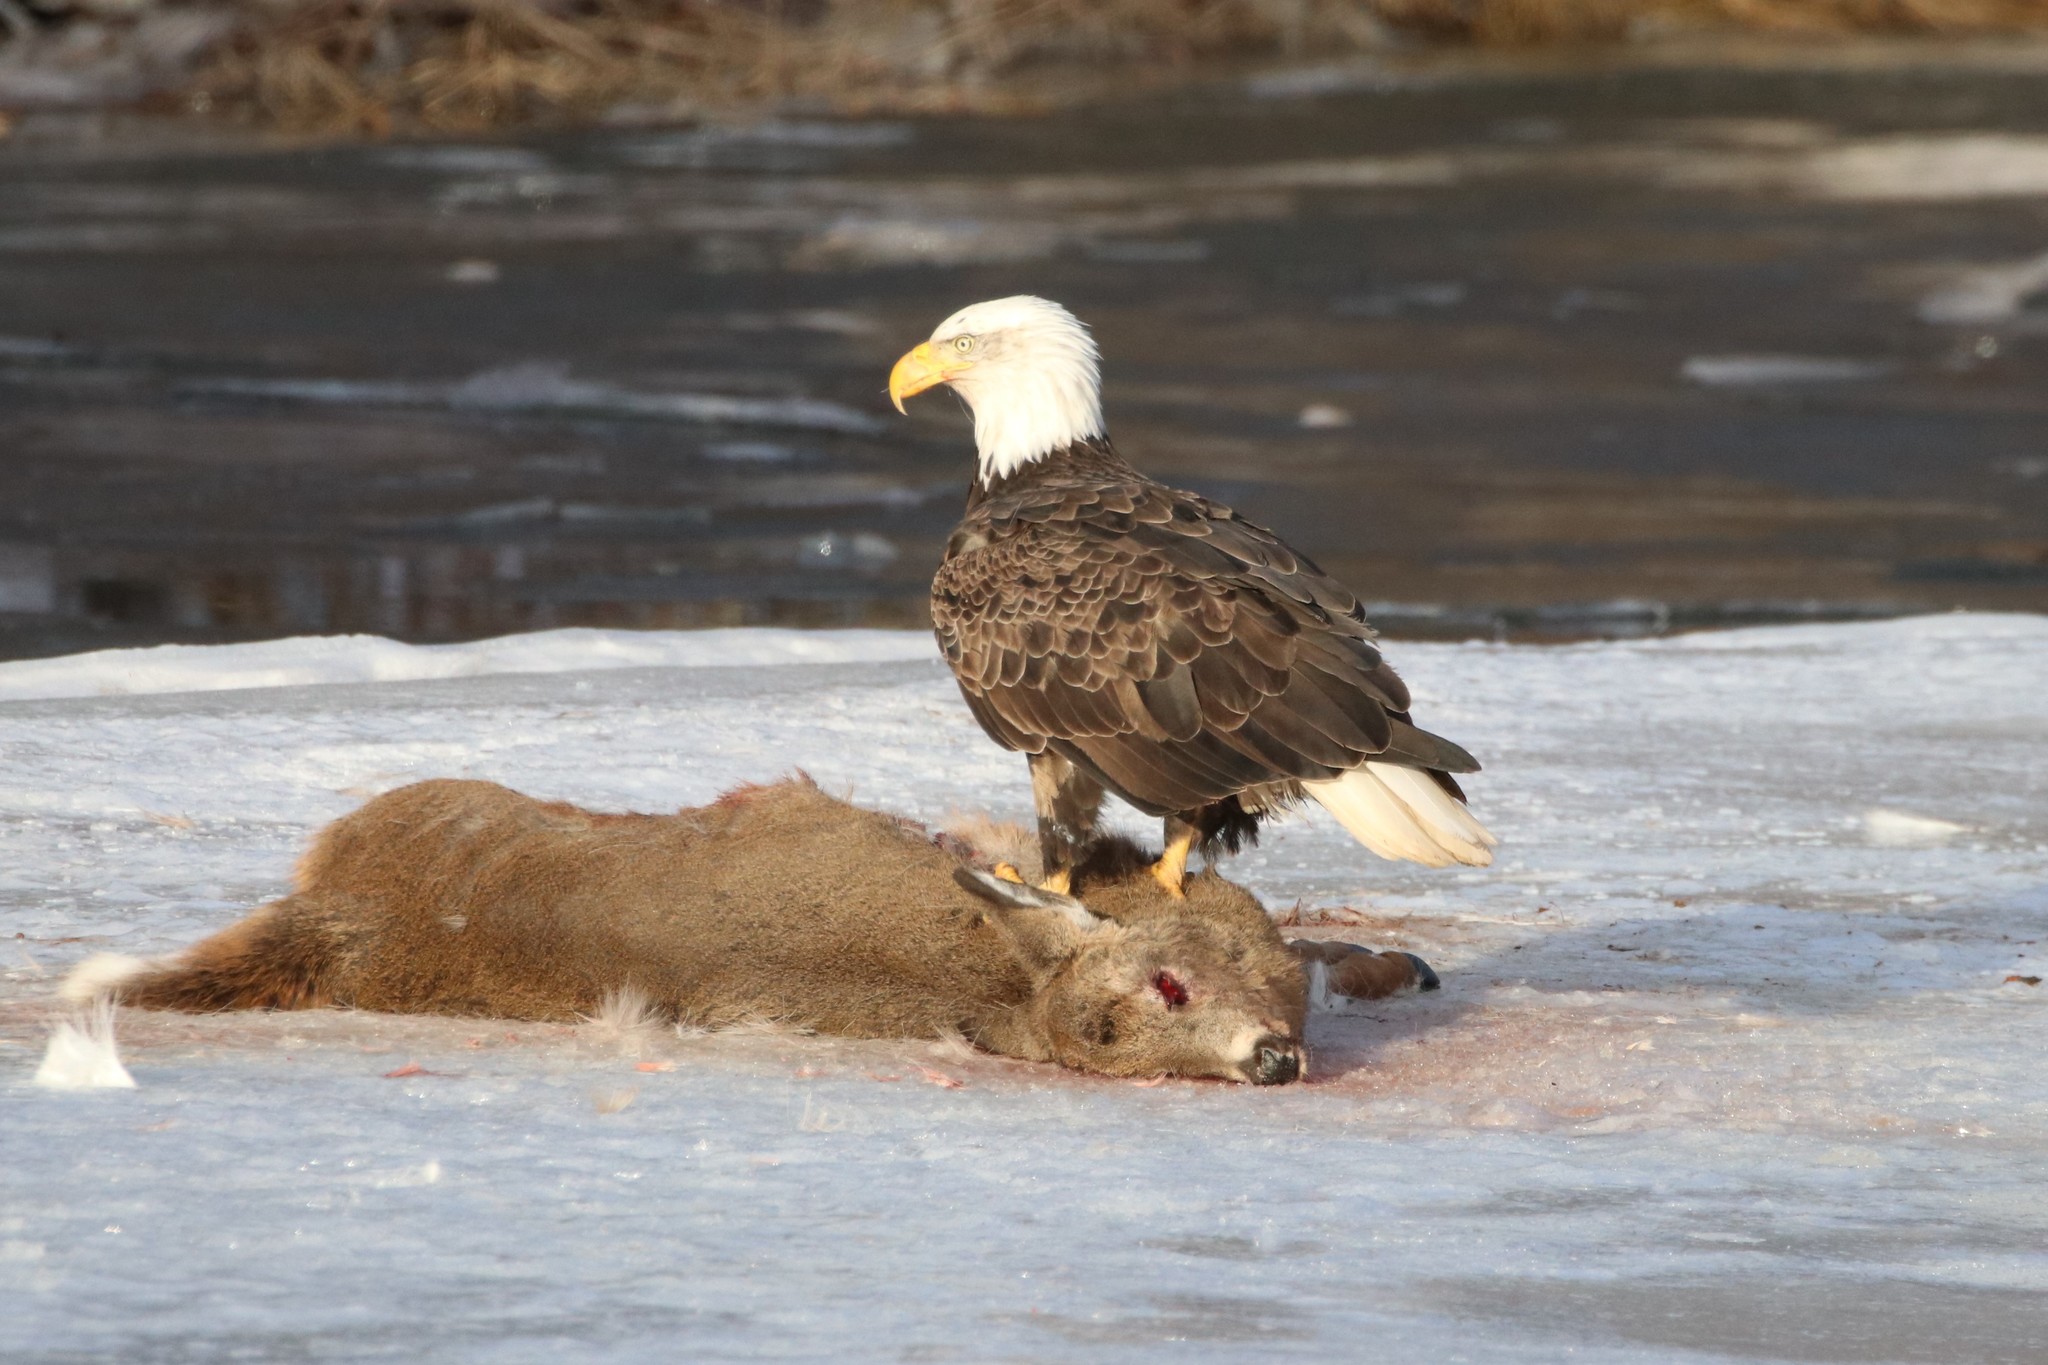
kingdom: Animalia
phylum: Chordata
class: Aves
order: Accipitriformes
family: Accipitridae
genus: Haliaeetus
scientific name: Haliaeetus leucocephalus
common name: Bald eagle
